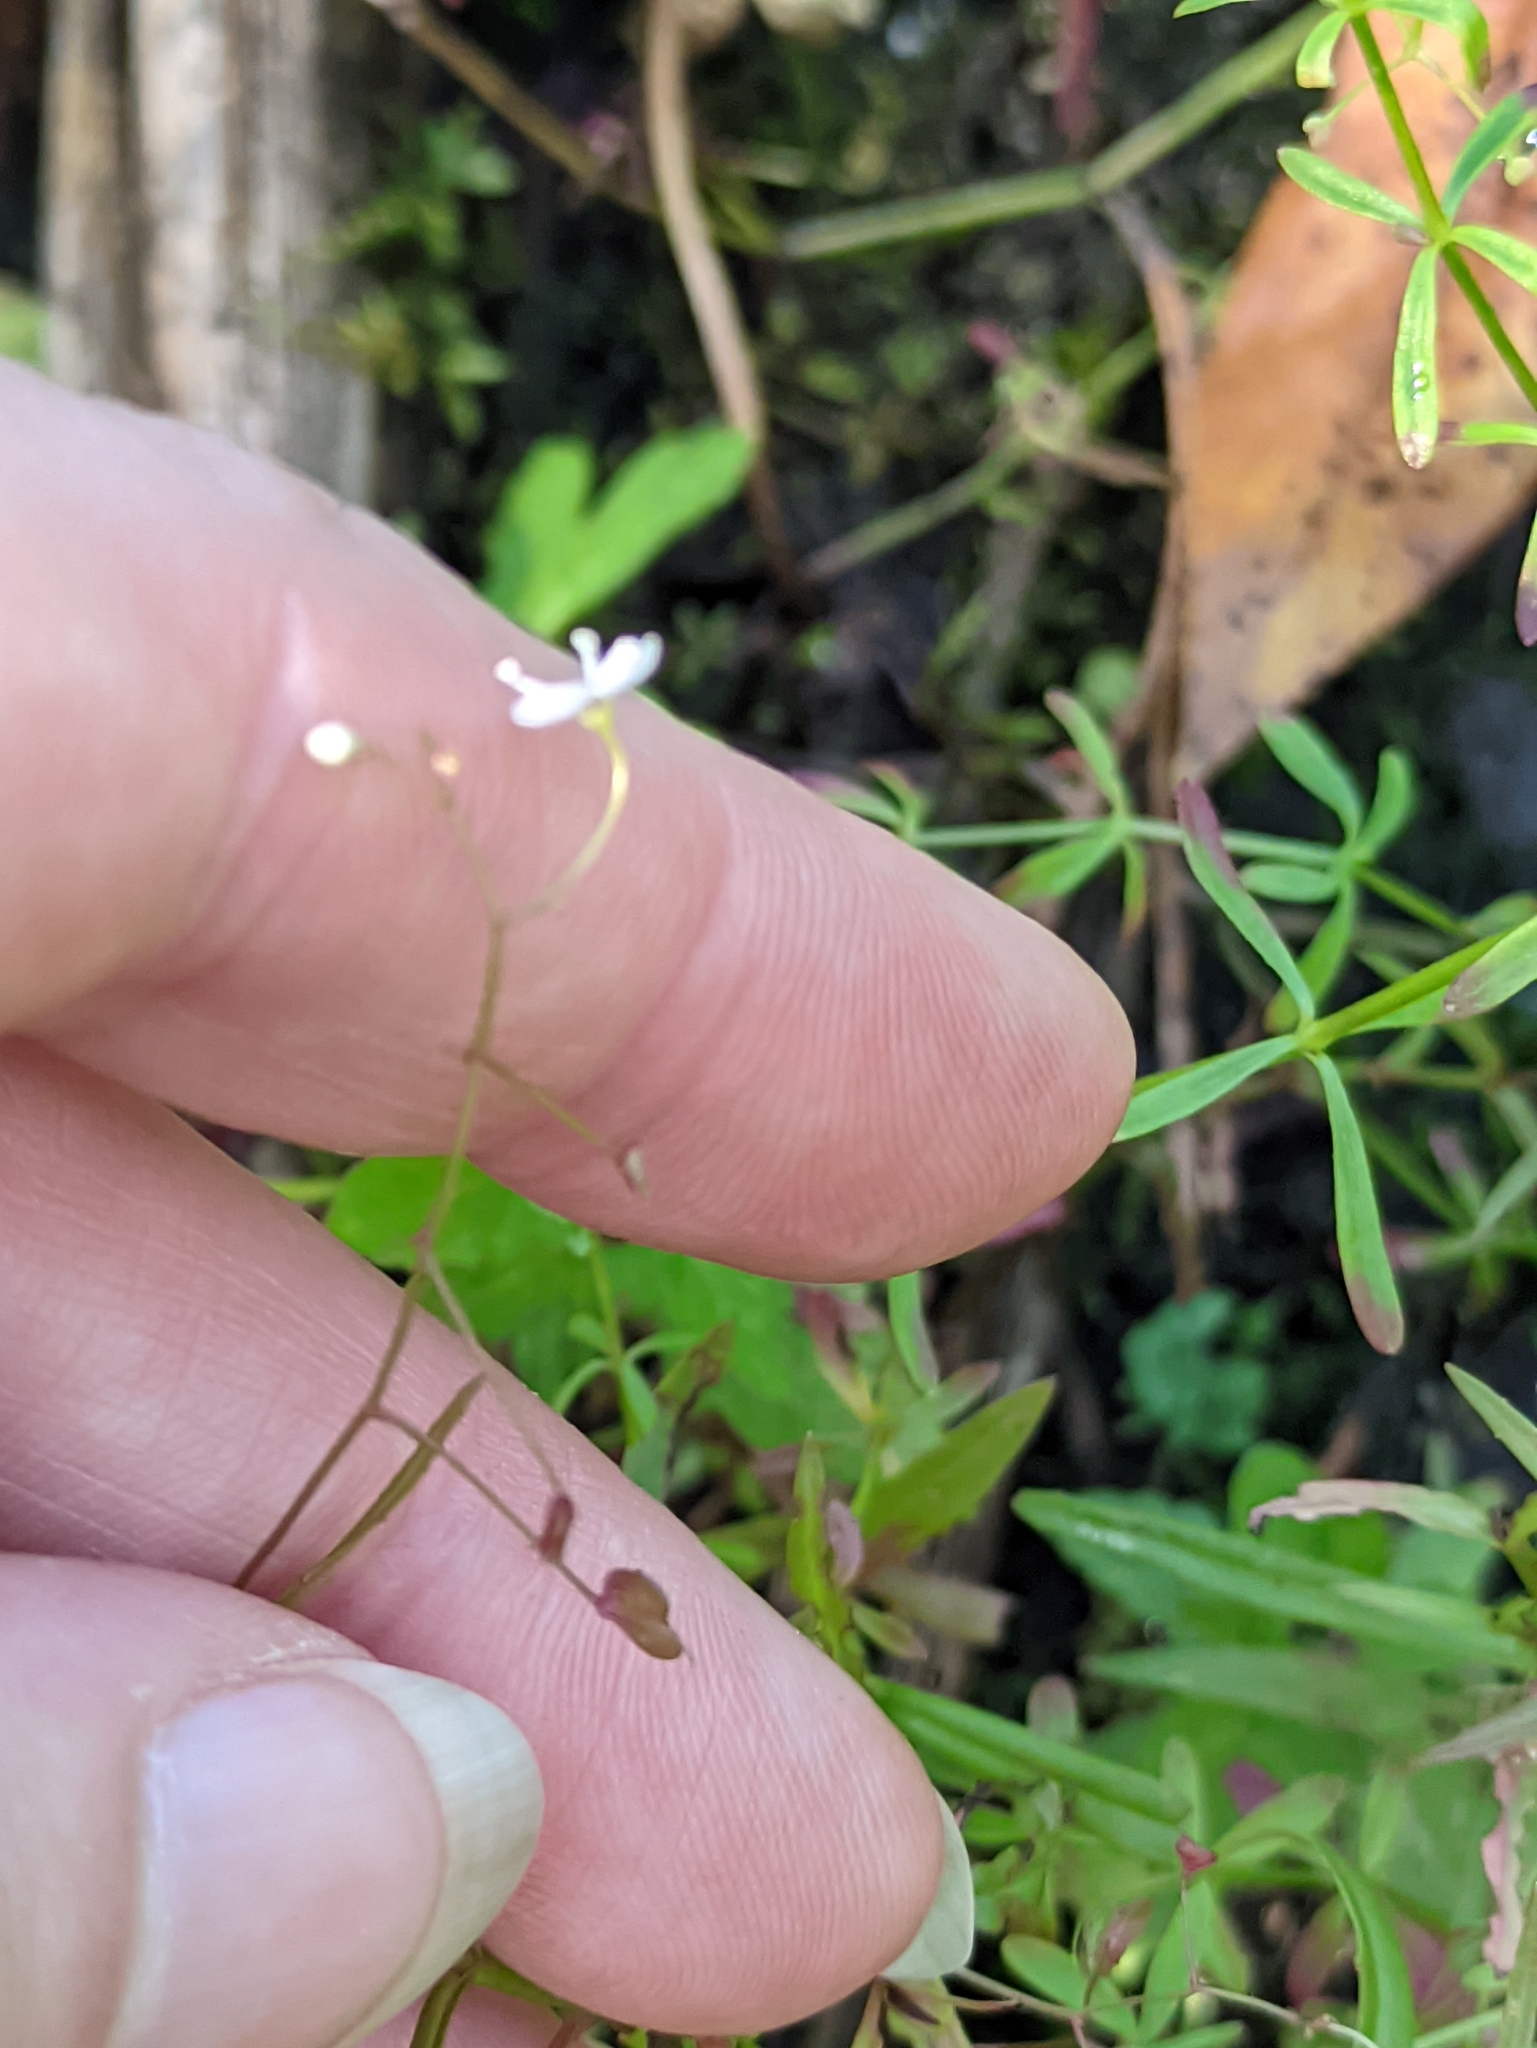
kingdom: Plantae
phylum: Tracheophyta
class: Magnoliopsida
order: Lamiales
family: Plantaginaceae
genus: Veronica
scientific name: Veronica scutellata
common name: Marsh speedwell
